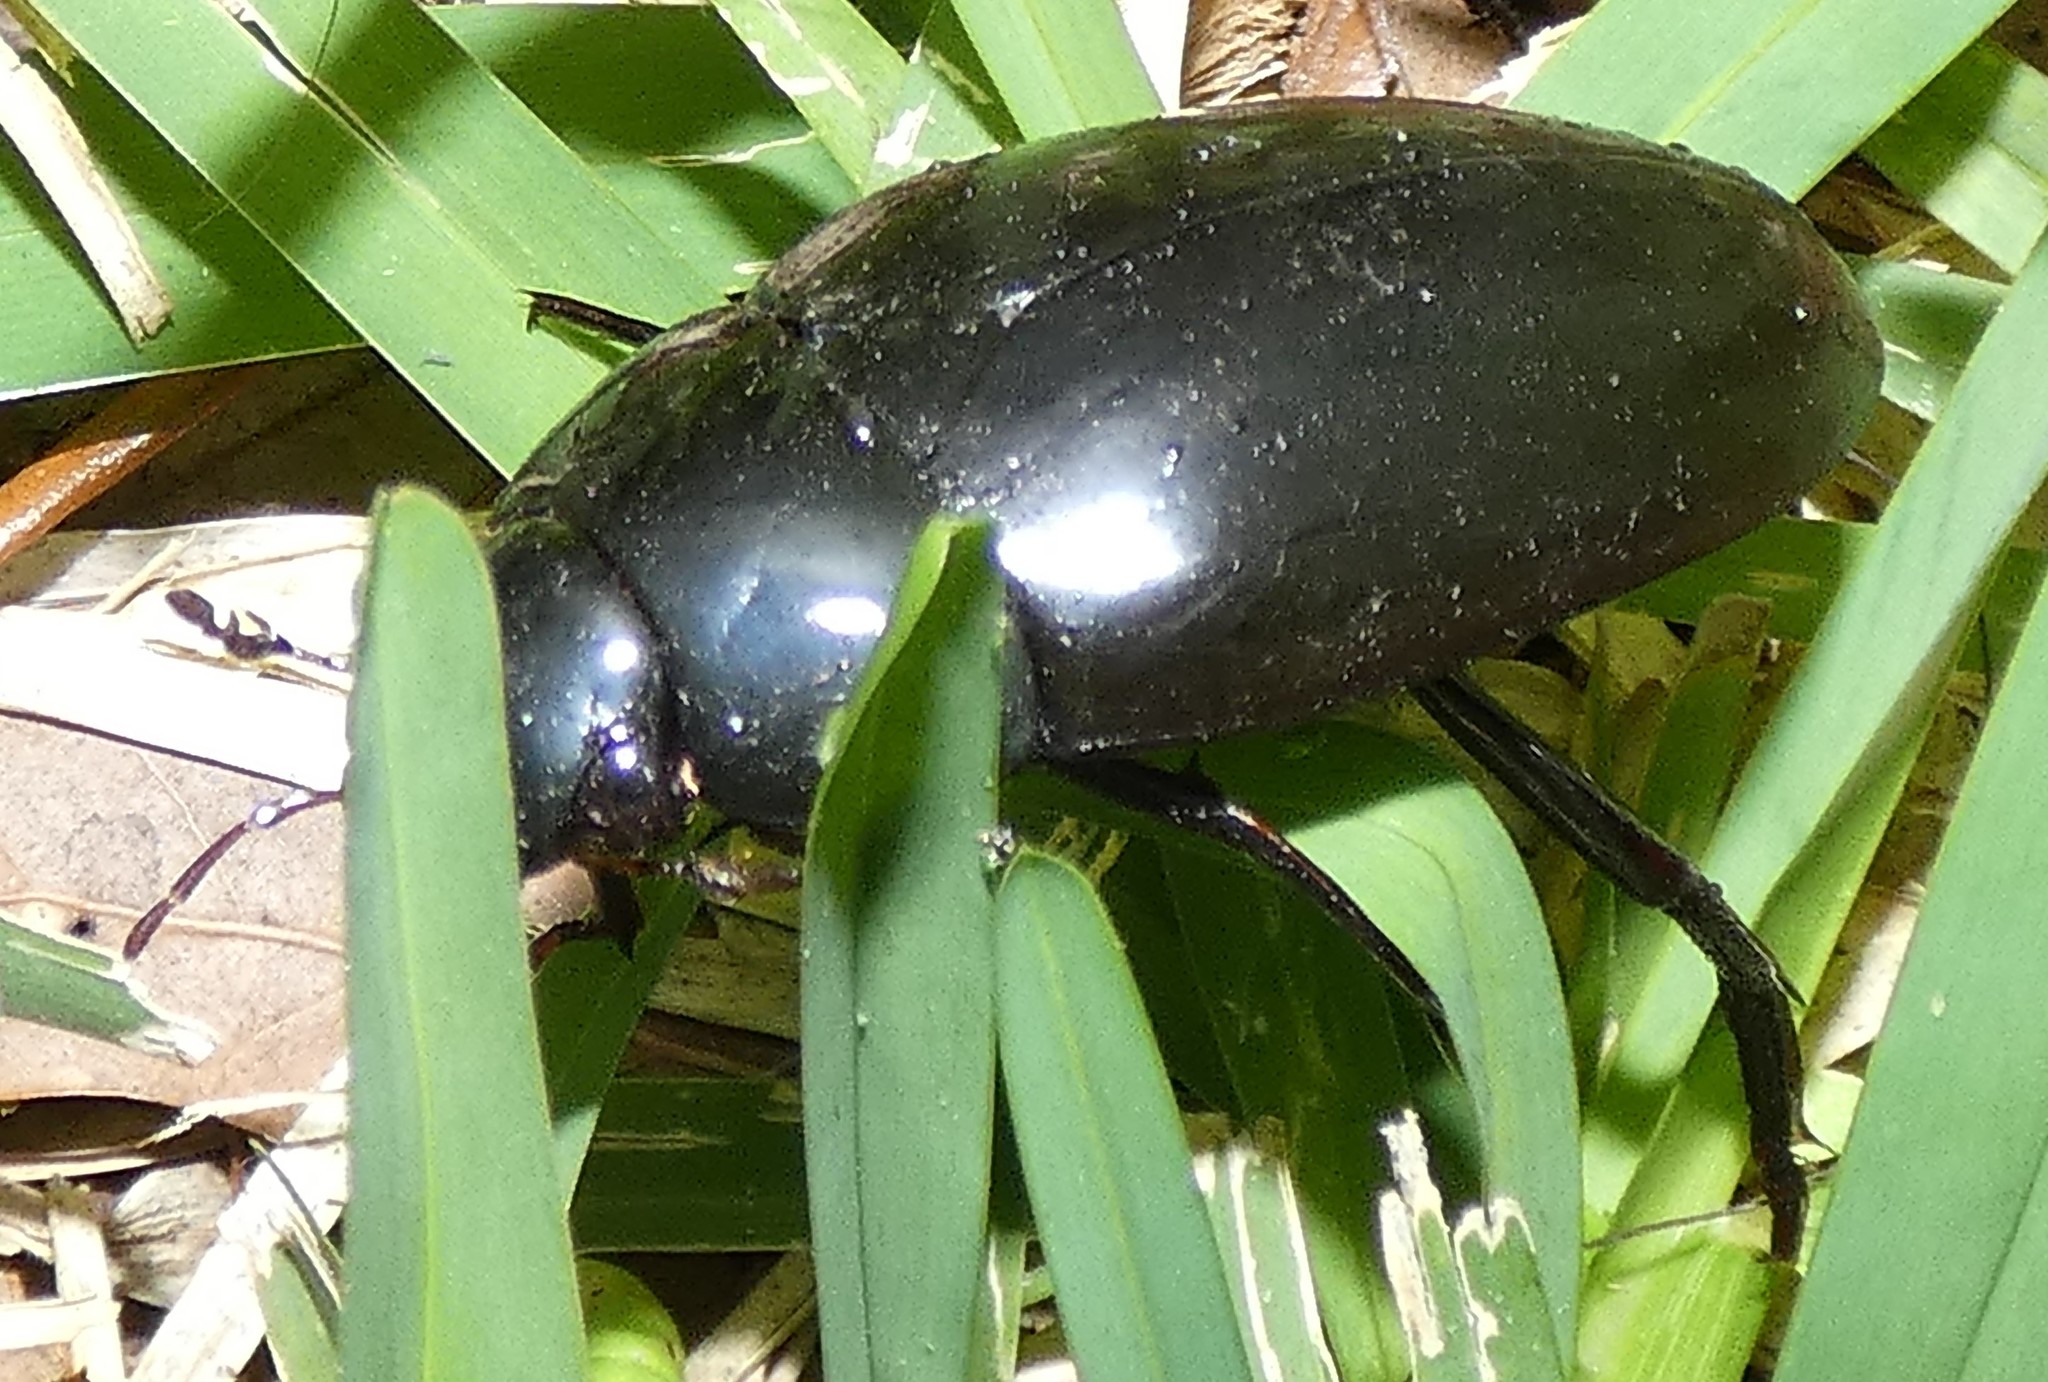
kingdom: Animalia
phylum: Arthropoda
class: Insecta
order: Coleoptera
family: Hydrophilidae
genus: Hydrophilus
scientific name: Hydrophilus
